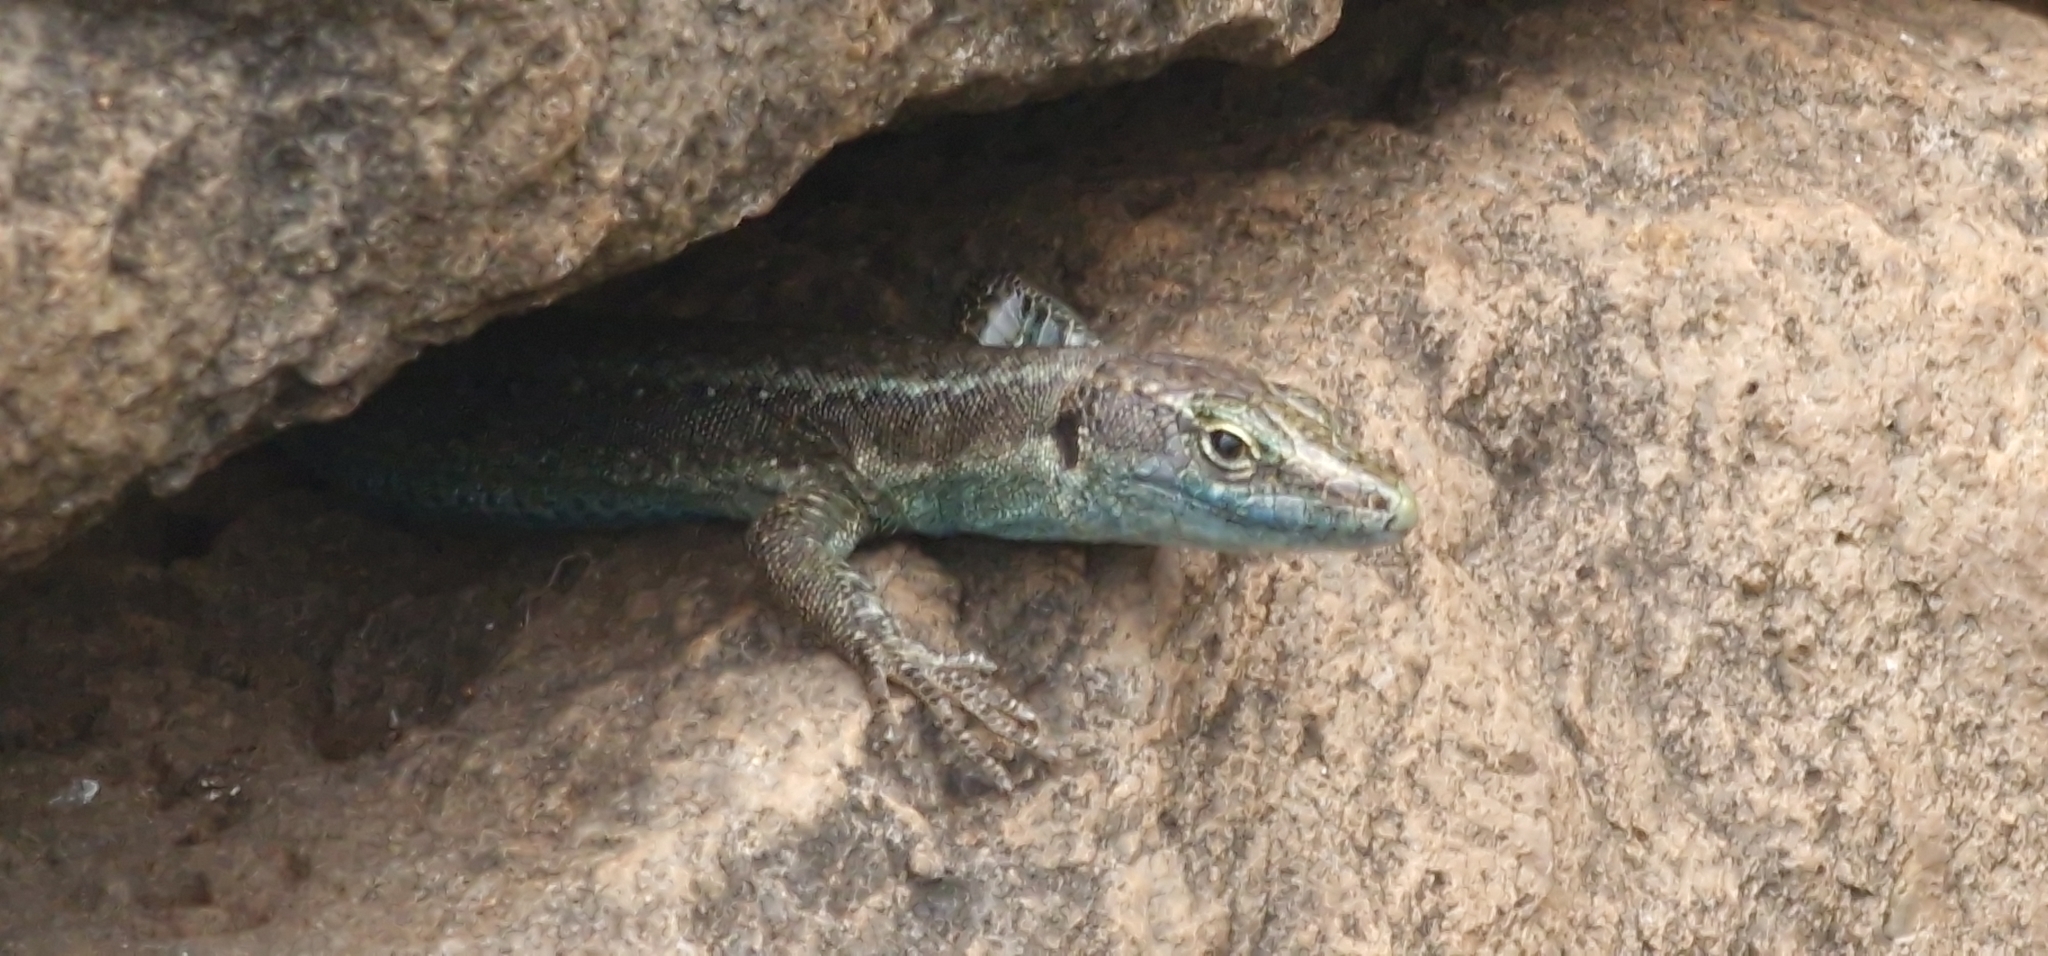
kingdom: Animalia
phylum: Chordata
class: Squamata
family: Lacertidae
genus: Teira
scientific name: Teira dugesii
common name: Madeira lizard
